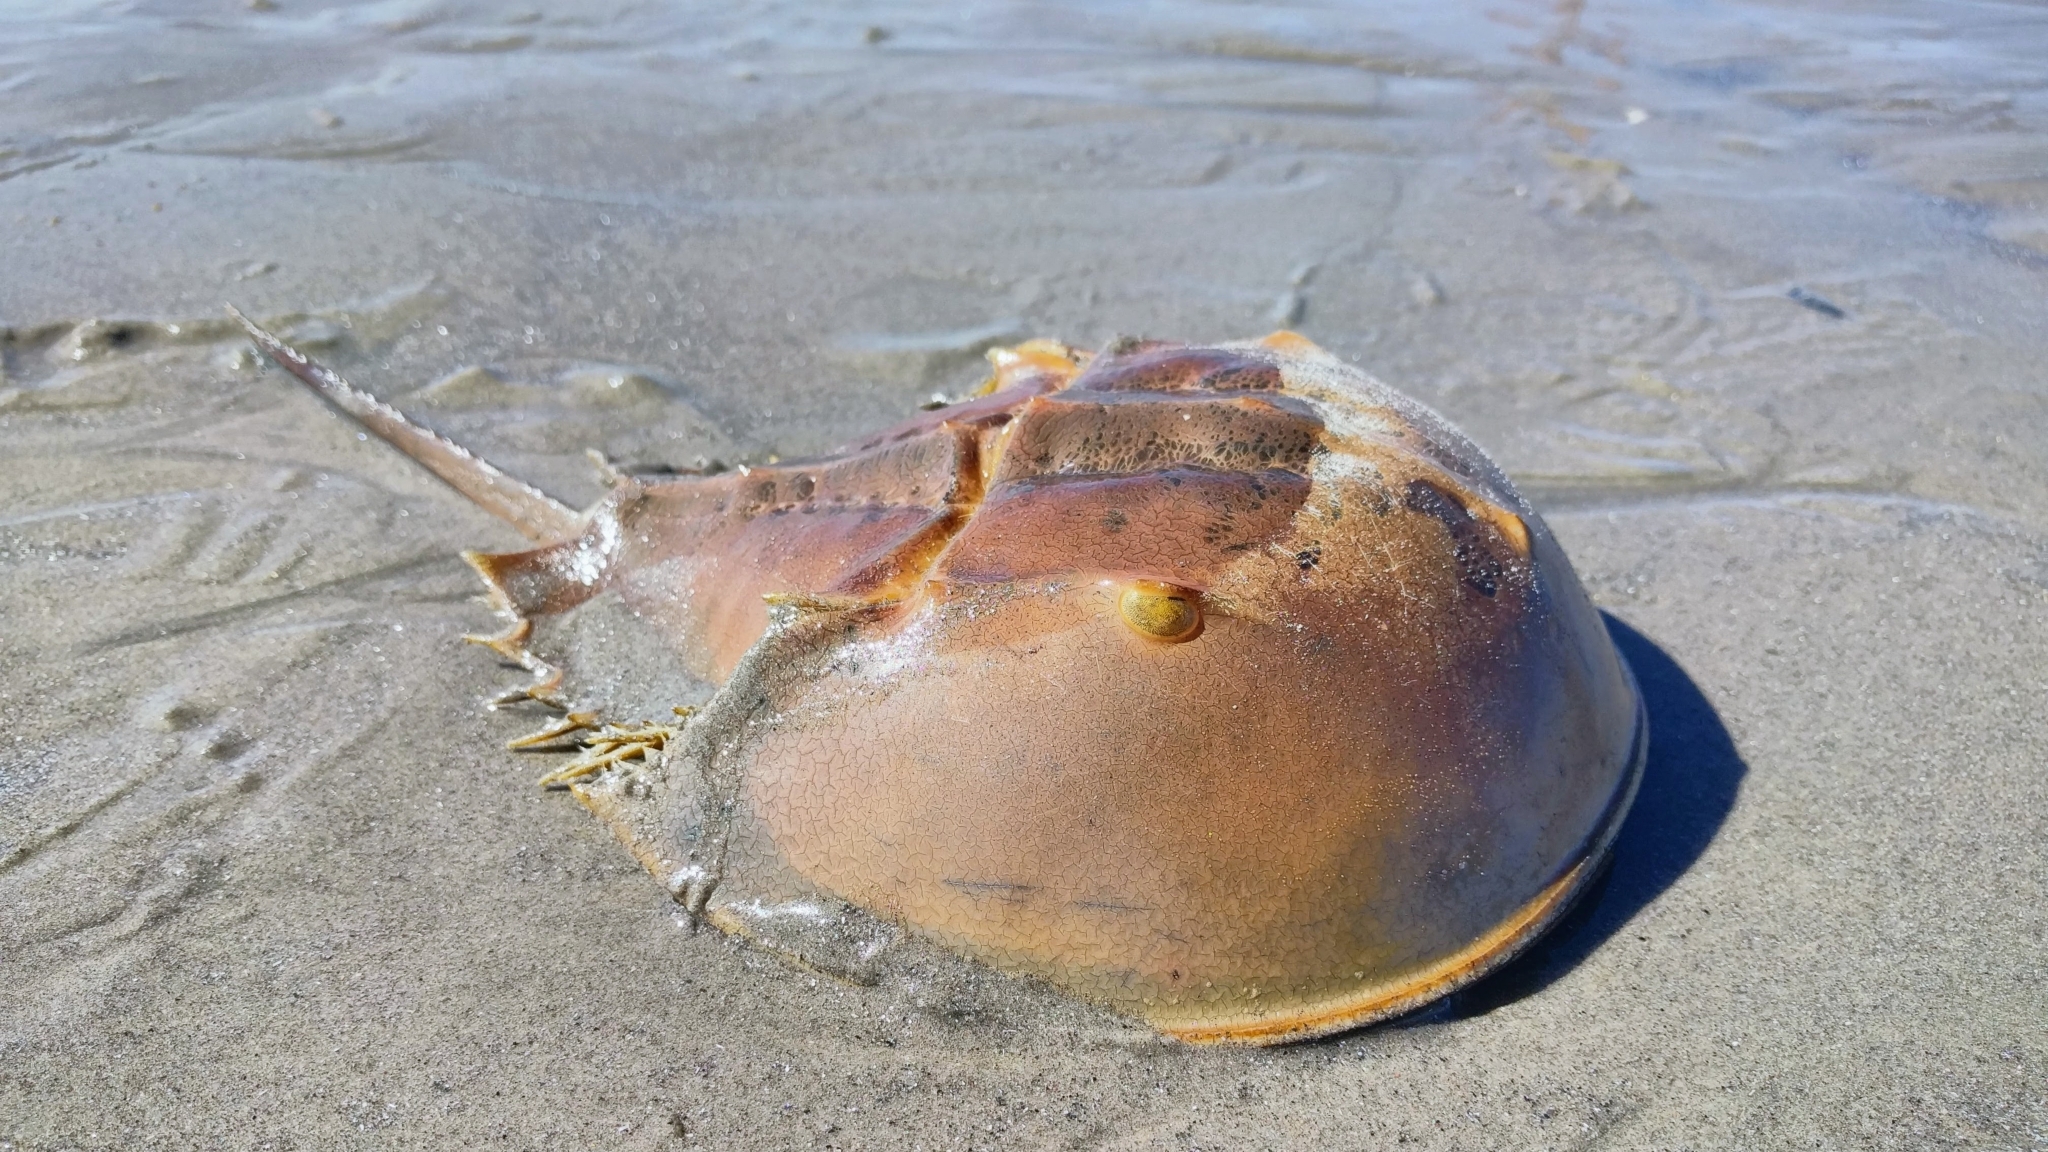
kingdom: Animalia
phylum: Arthropoda
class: Merostomata
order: Xiphosurida
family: Limulidae
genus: Limulus
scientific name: Limulus polyphemus
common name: Horseshoe crab
